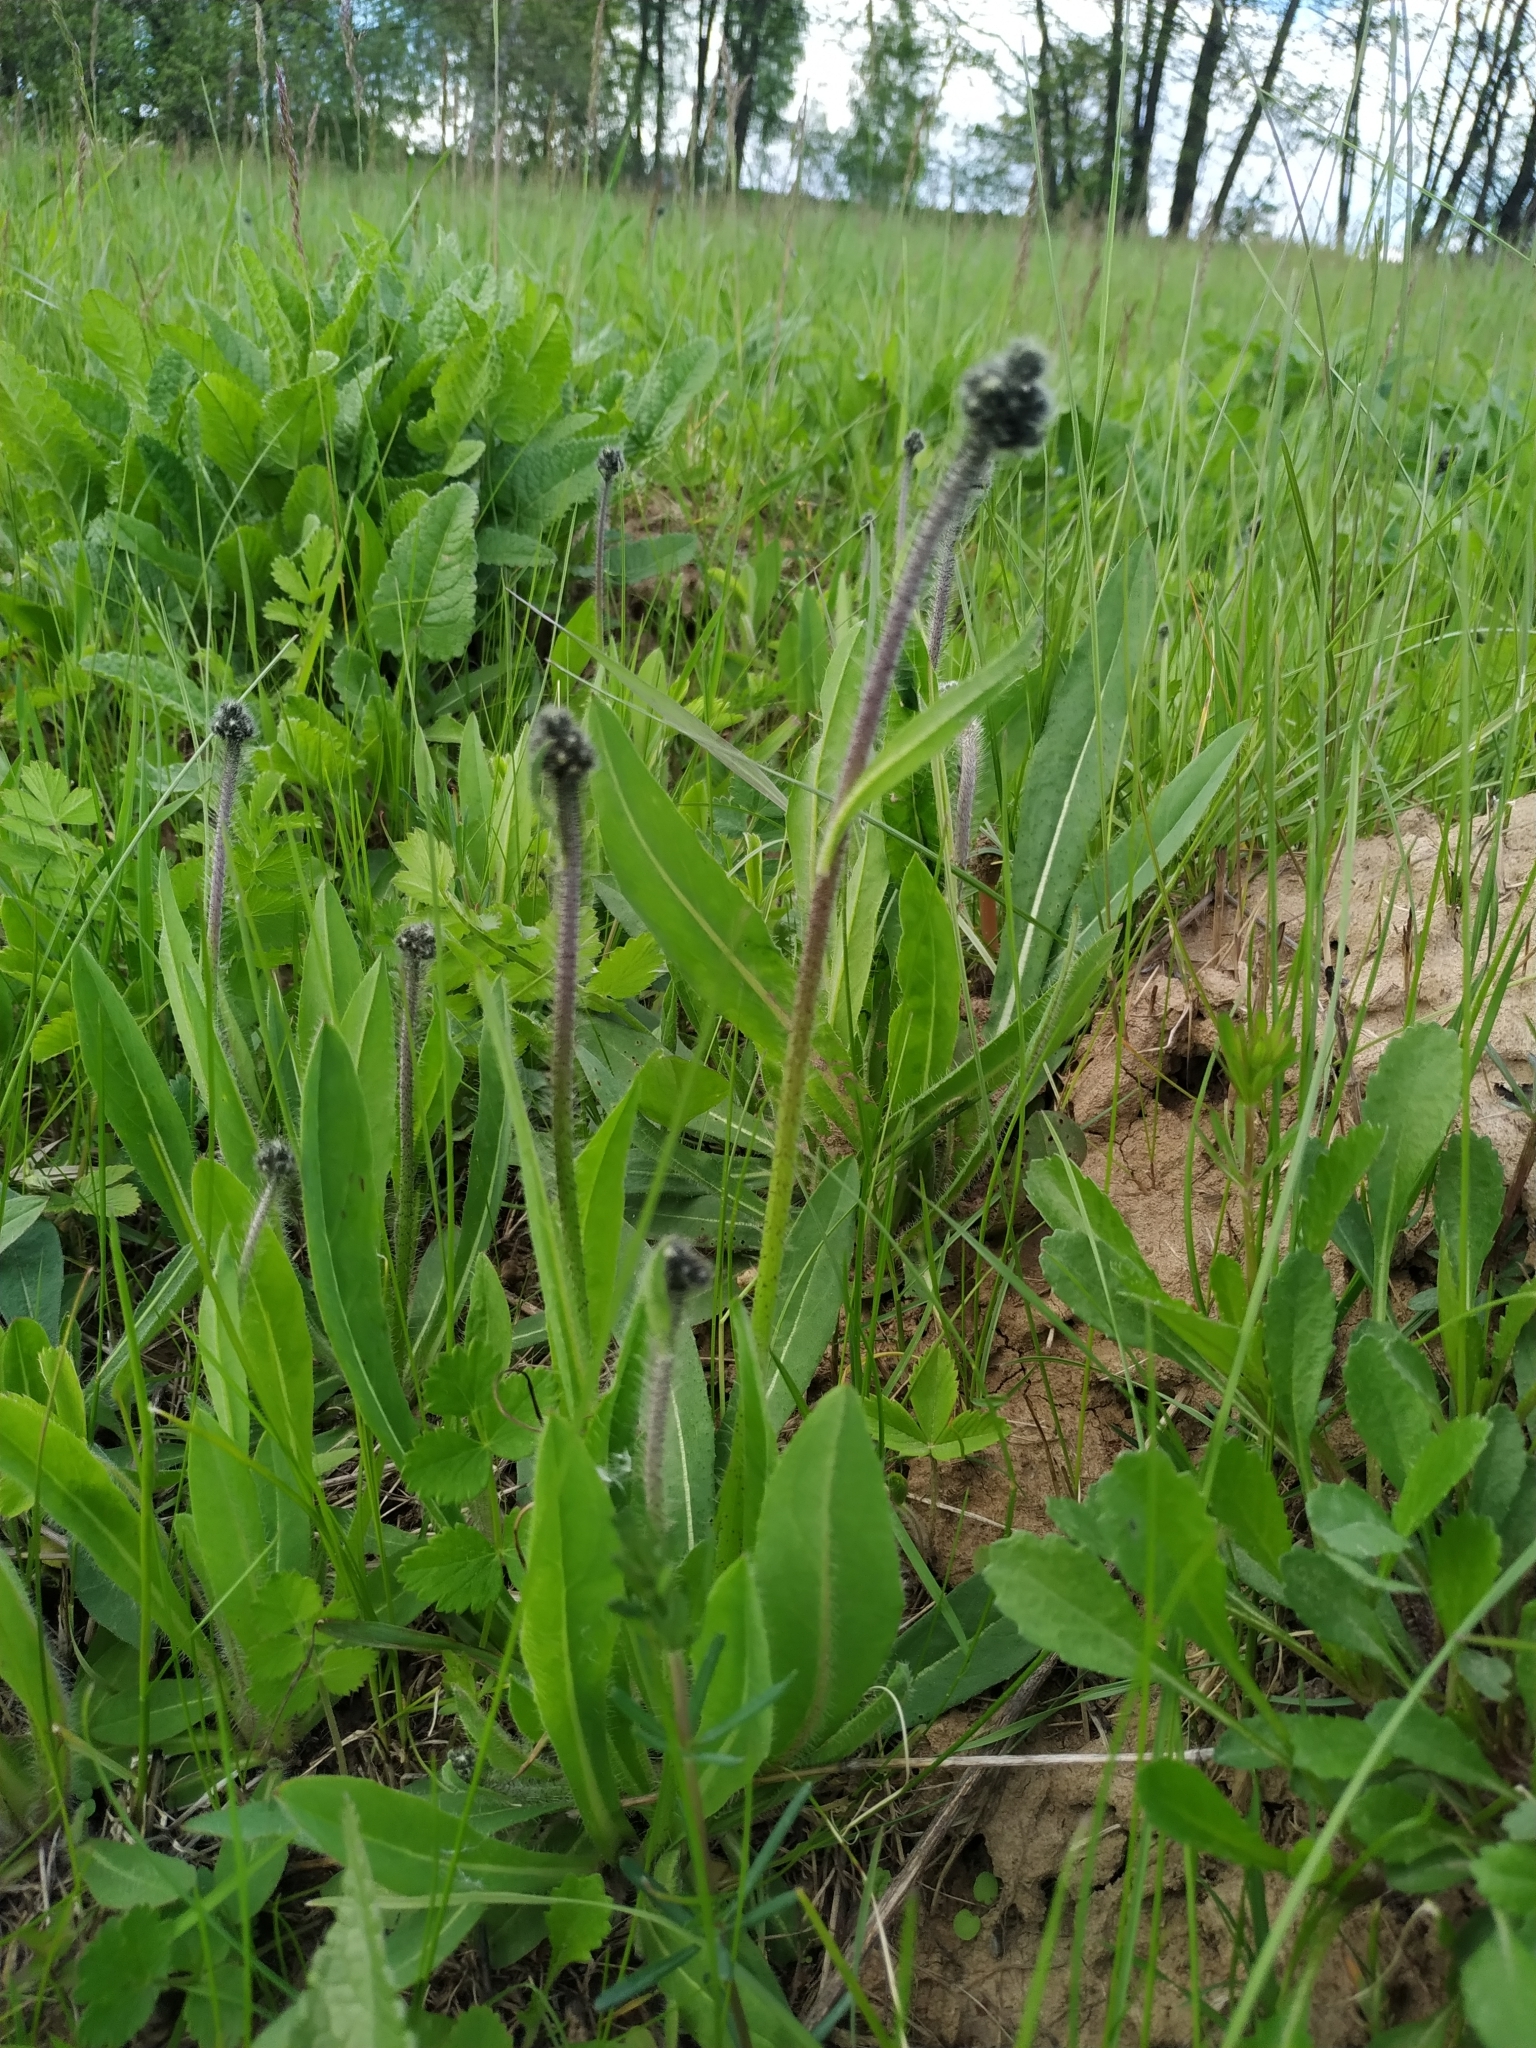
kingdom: Plantae
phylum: Tracheophyta
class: Magnoliopsida
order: Asterales
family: Asteraceae
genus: Pilosella
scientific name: Pilosella
